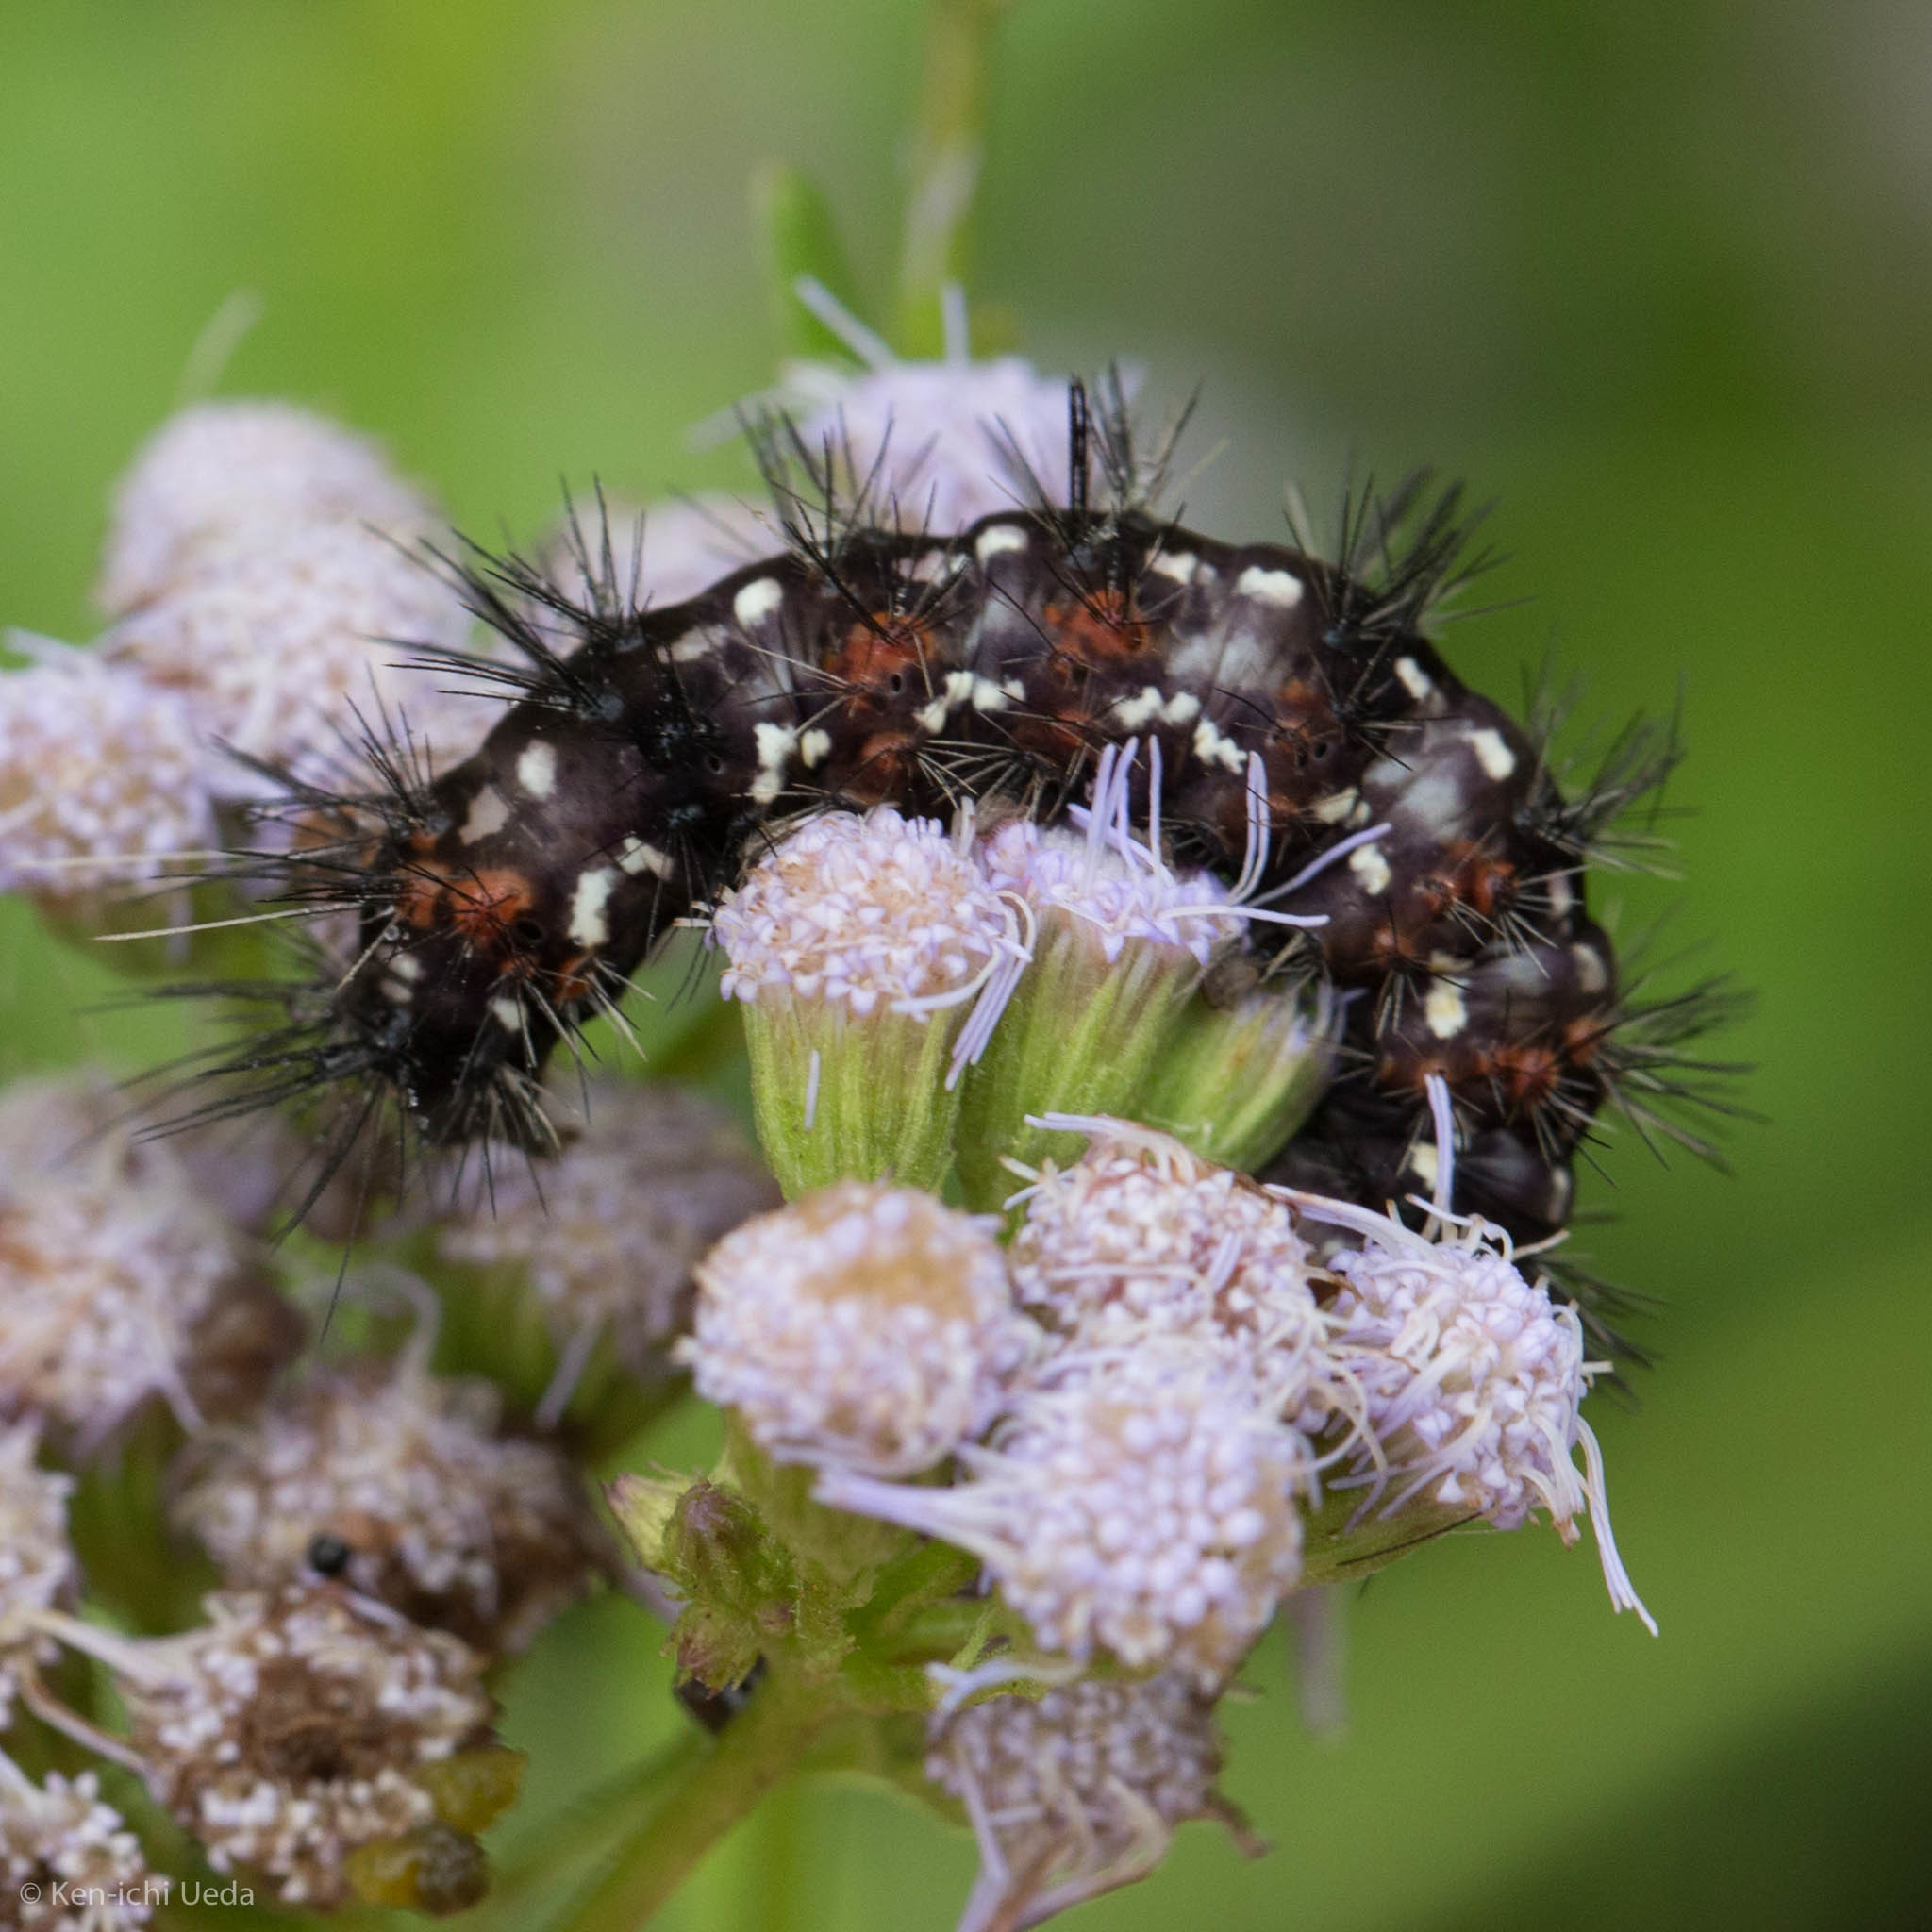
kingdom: Animalia
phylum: Arthropoda
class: Insecta
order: Lepidoptera
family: Erebidae
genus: Pareuchaetes
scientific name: Pareuchaetes insulata
